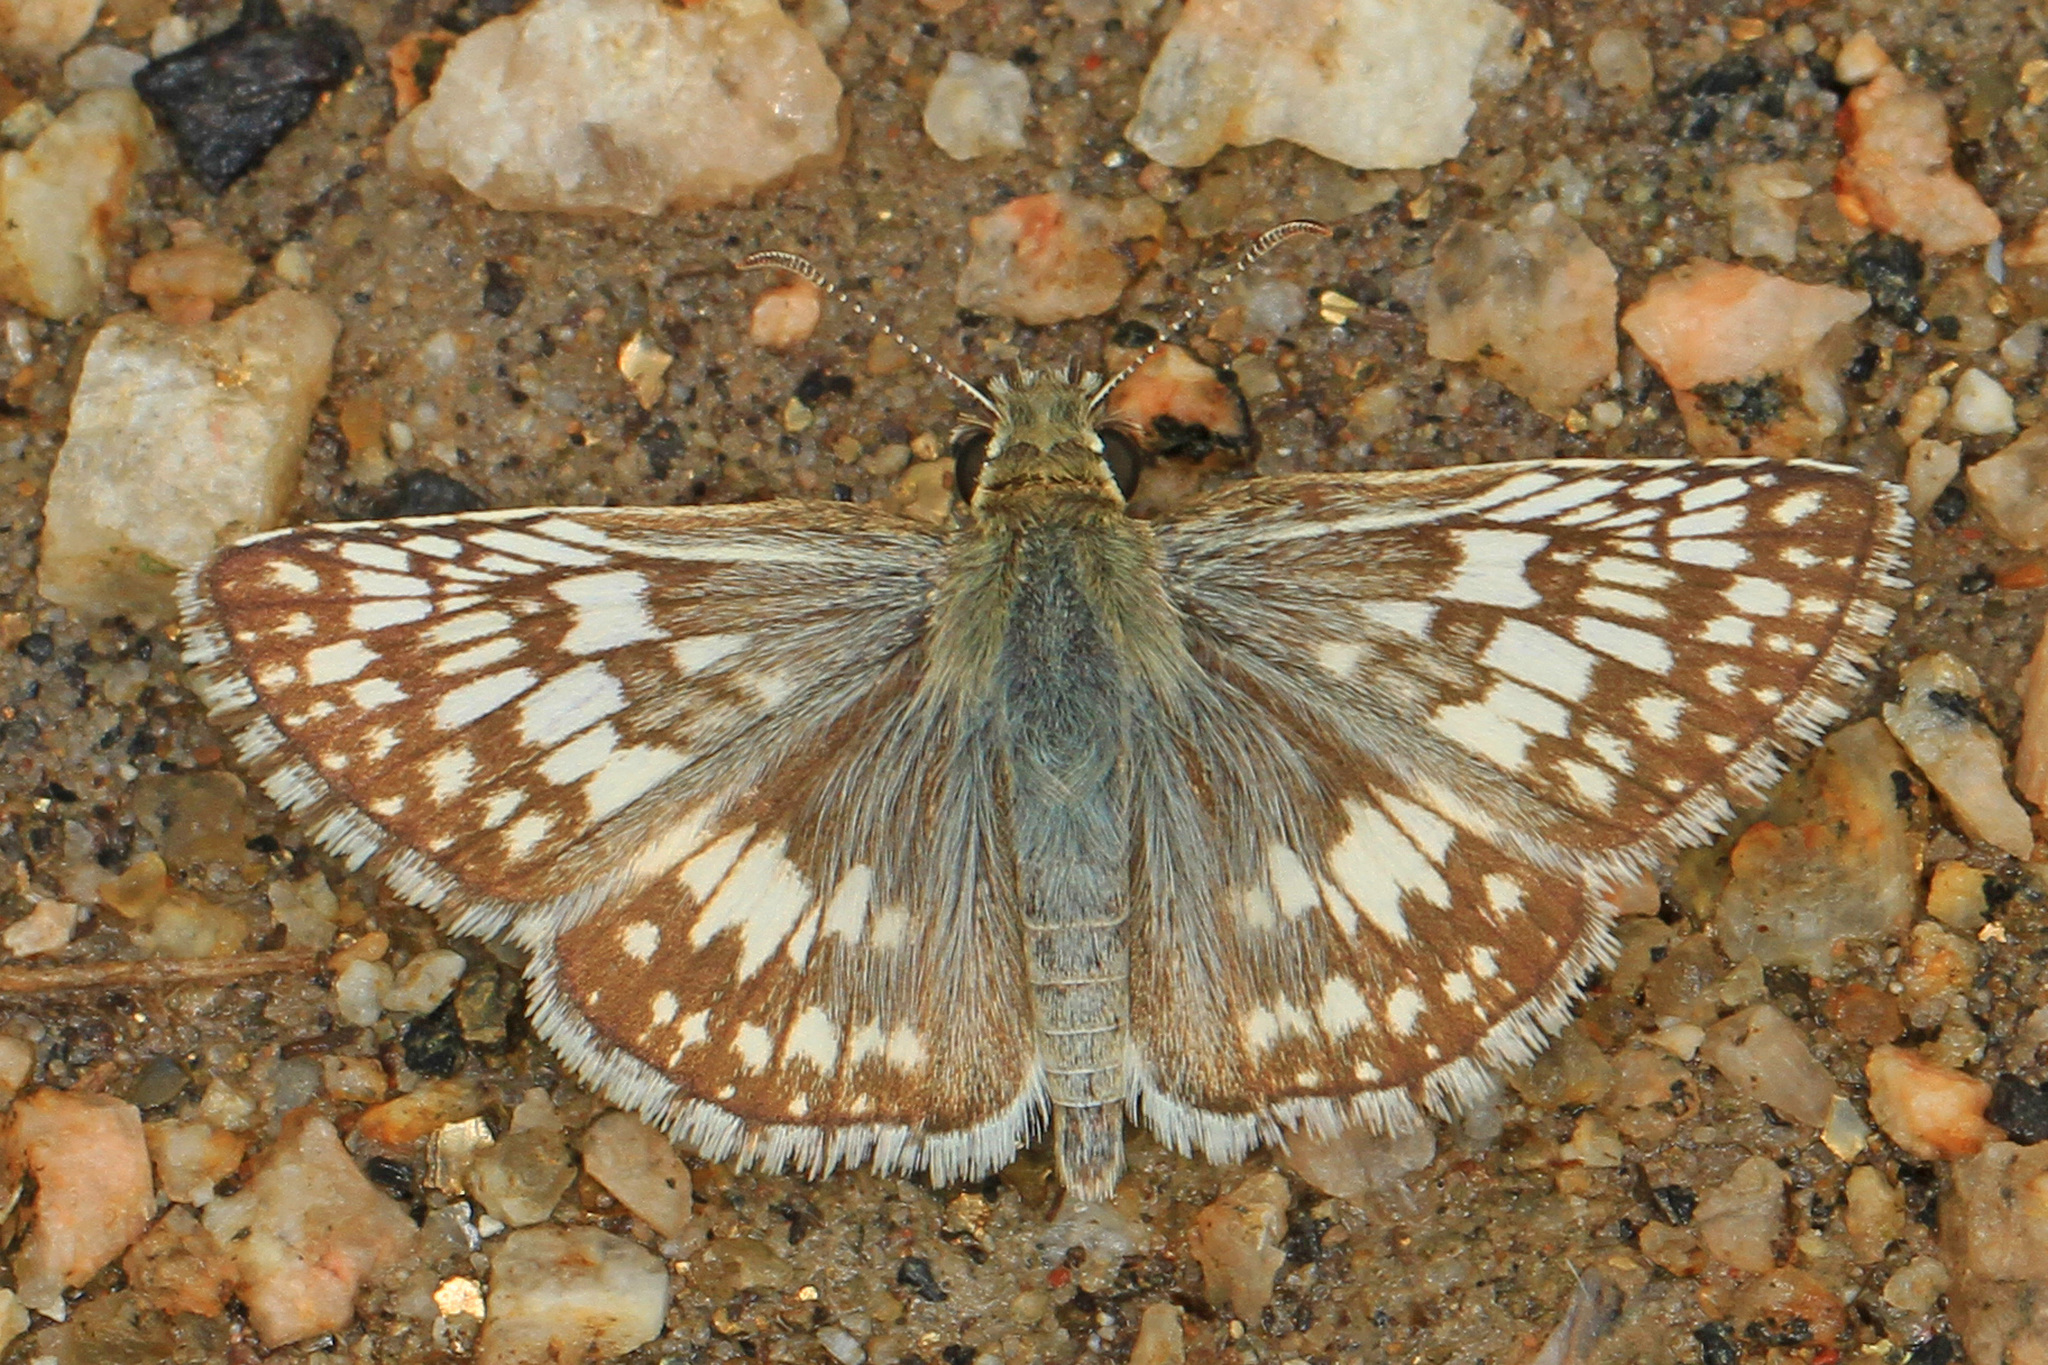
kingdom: Animalia
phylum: Arthropoda
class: Insecta
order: Lepidoptera
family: Hesperiidae
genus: Burnsius
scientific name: Burnsius
